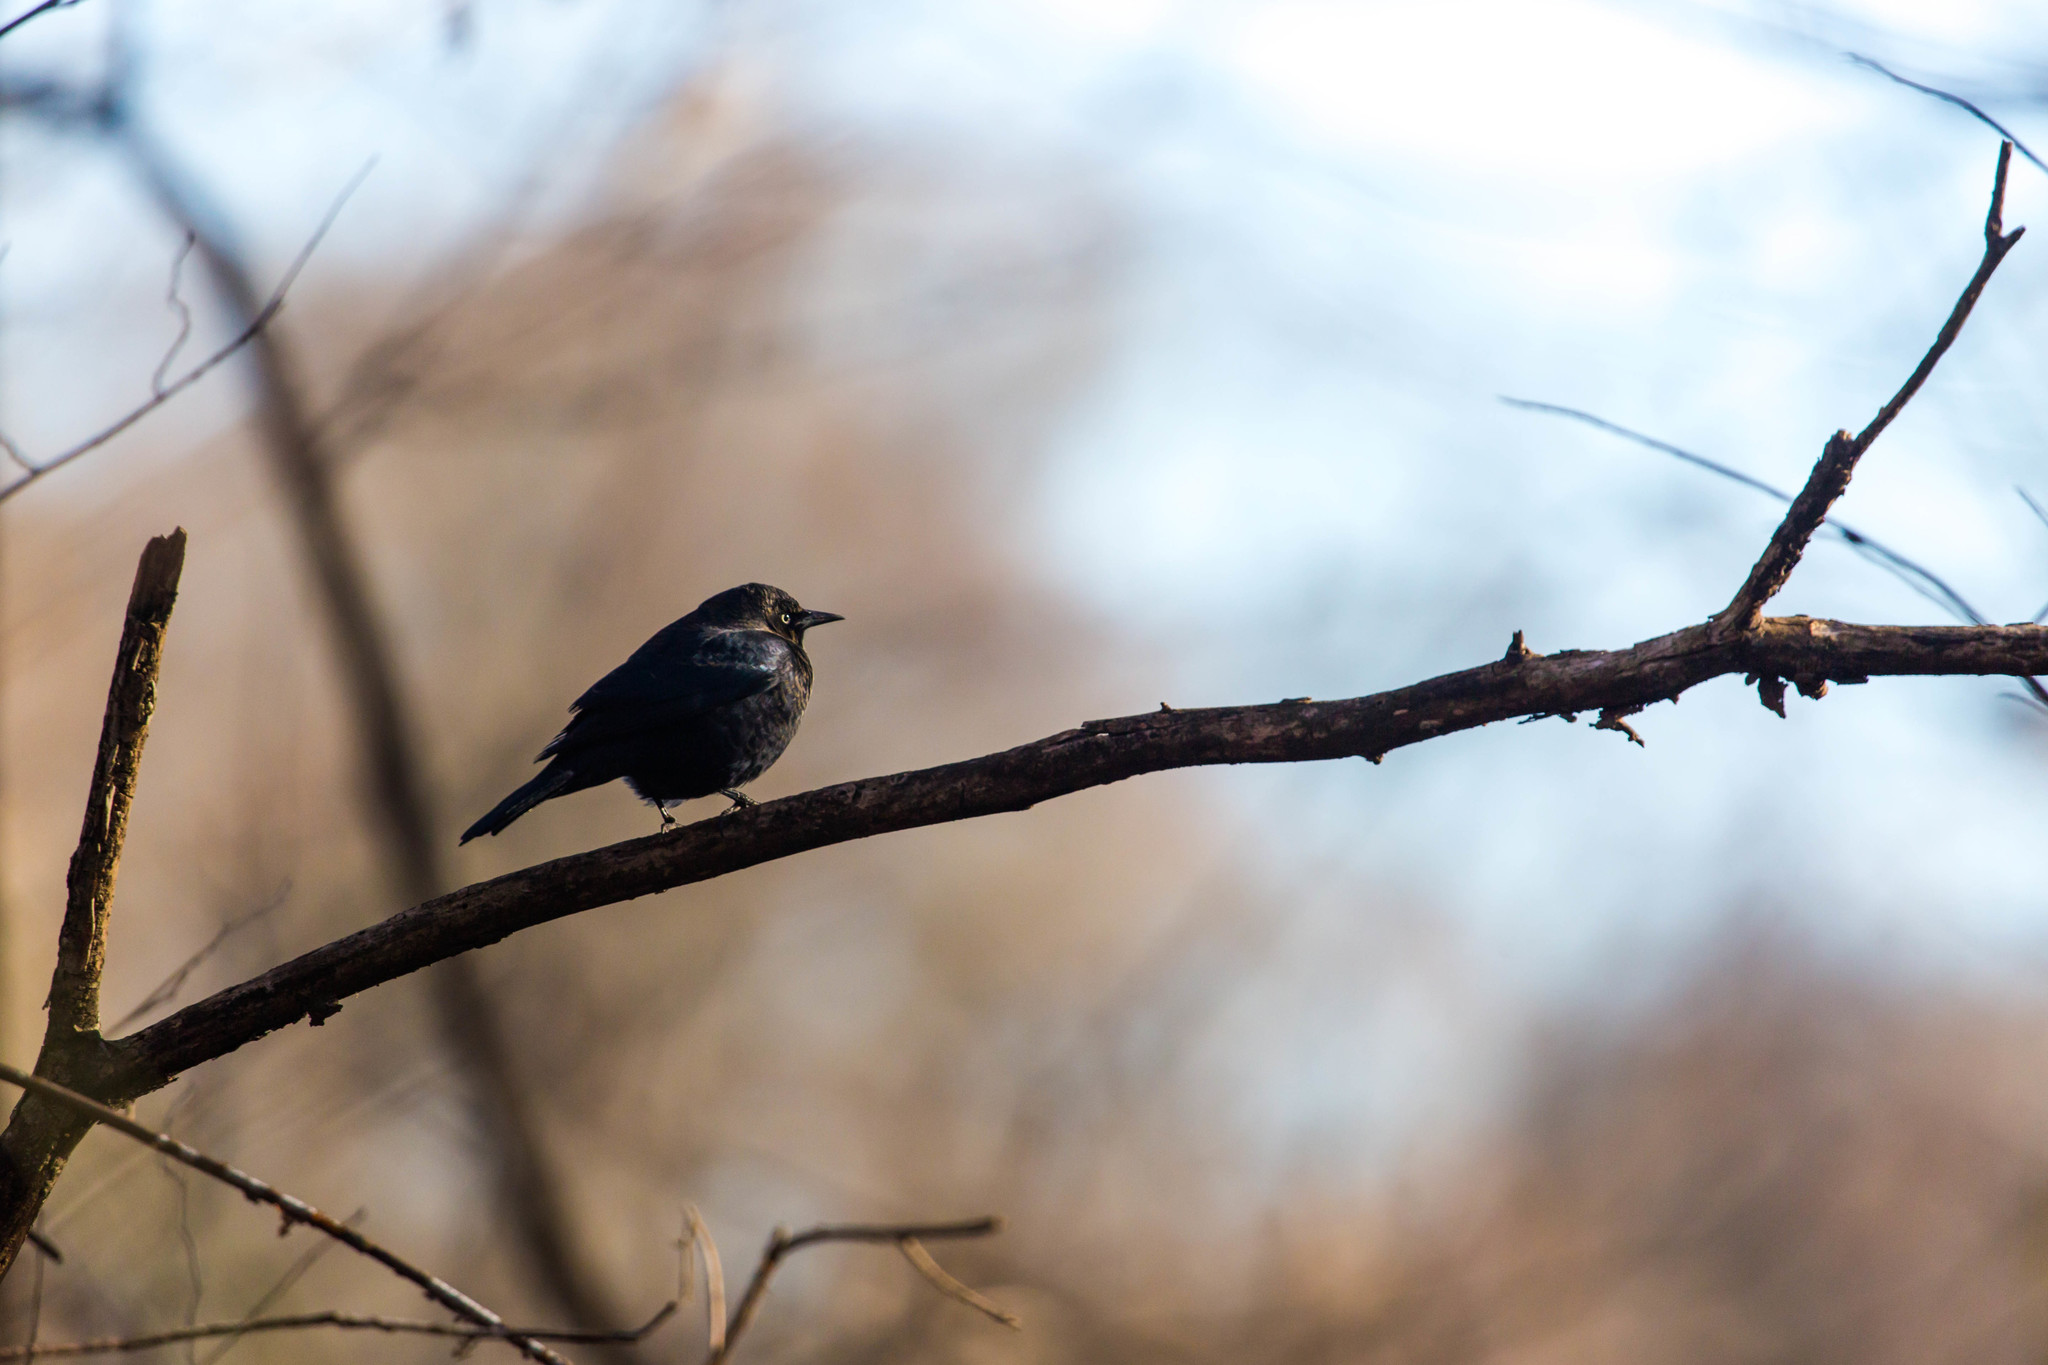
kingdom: Animalia
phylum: Chordata
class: Aves
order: Passeriformes
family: Icteridae
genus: Euphagus
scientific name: Euphagus carolinus
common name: Rusty blackbird
